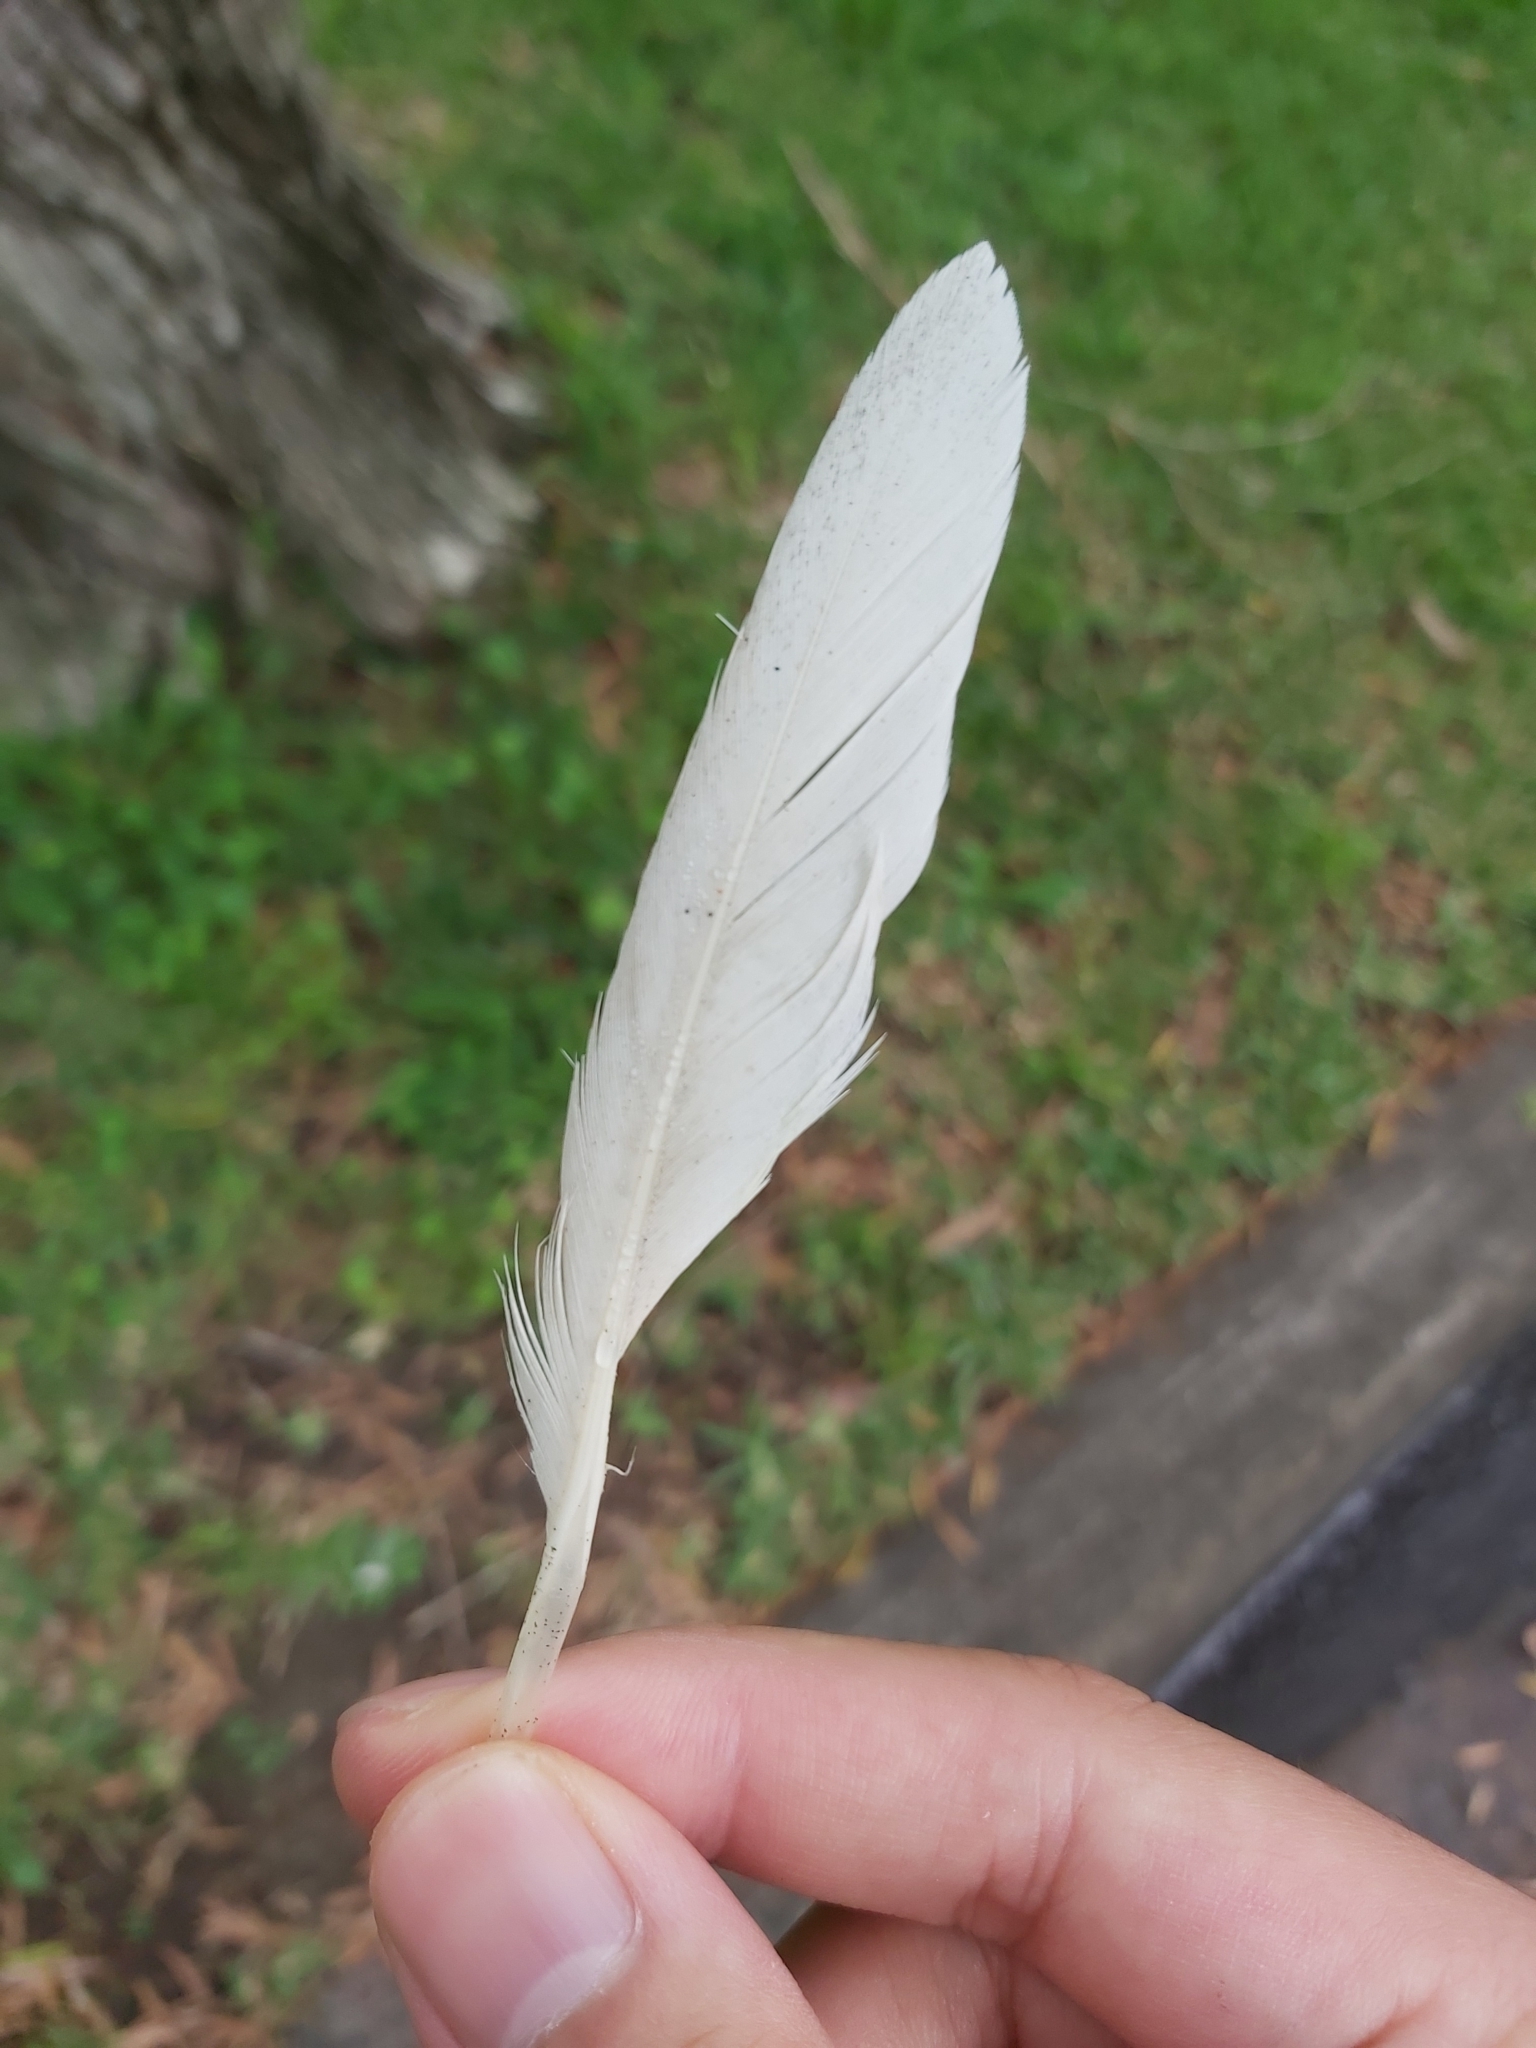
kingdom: Animalia
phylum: Chordata
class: Aves
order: Psittaciformes
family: Psittacidae
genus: Cacatua
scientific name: Cacatua galerita
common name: Sulphur-crested cockatoo
